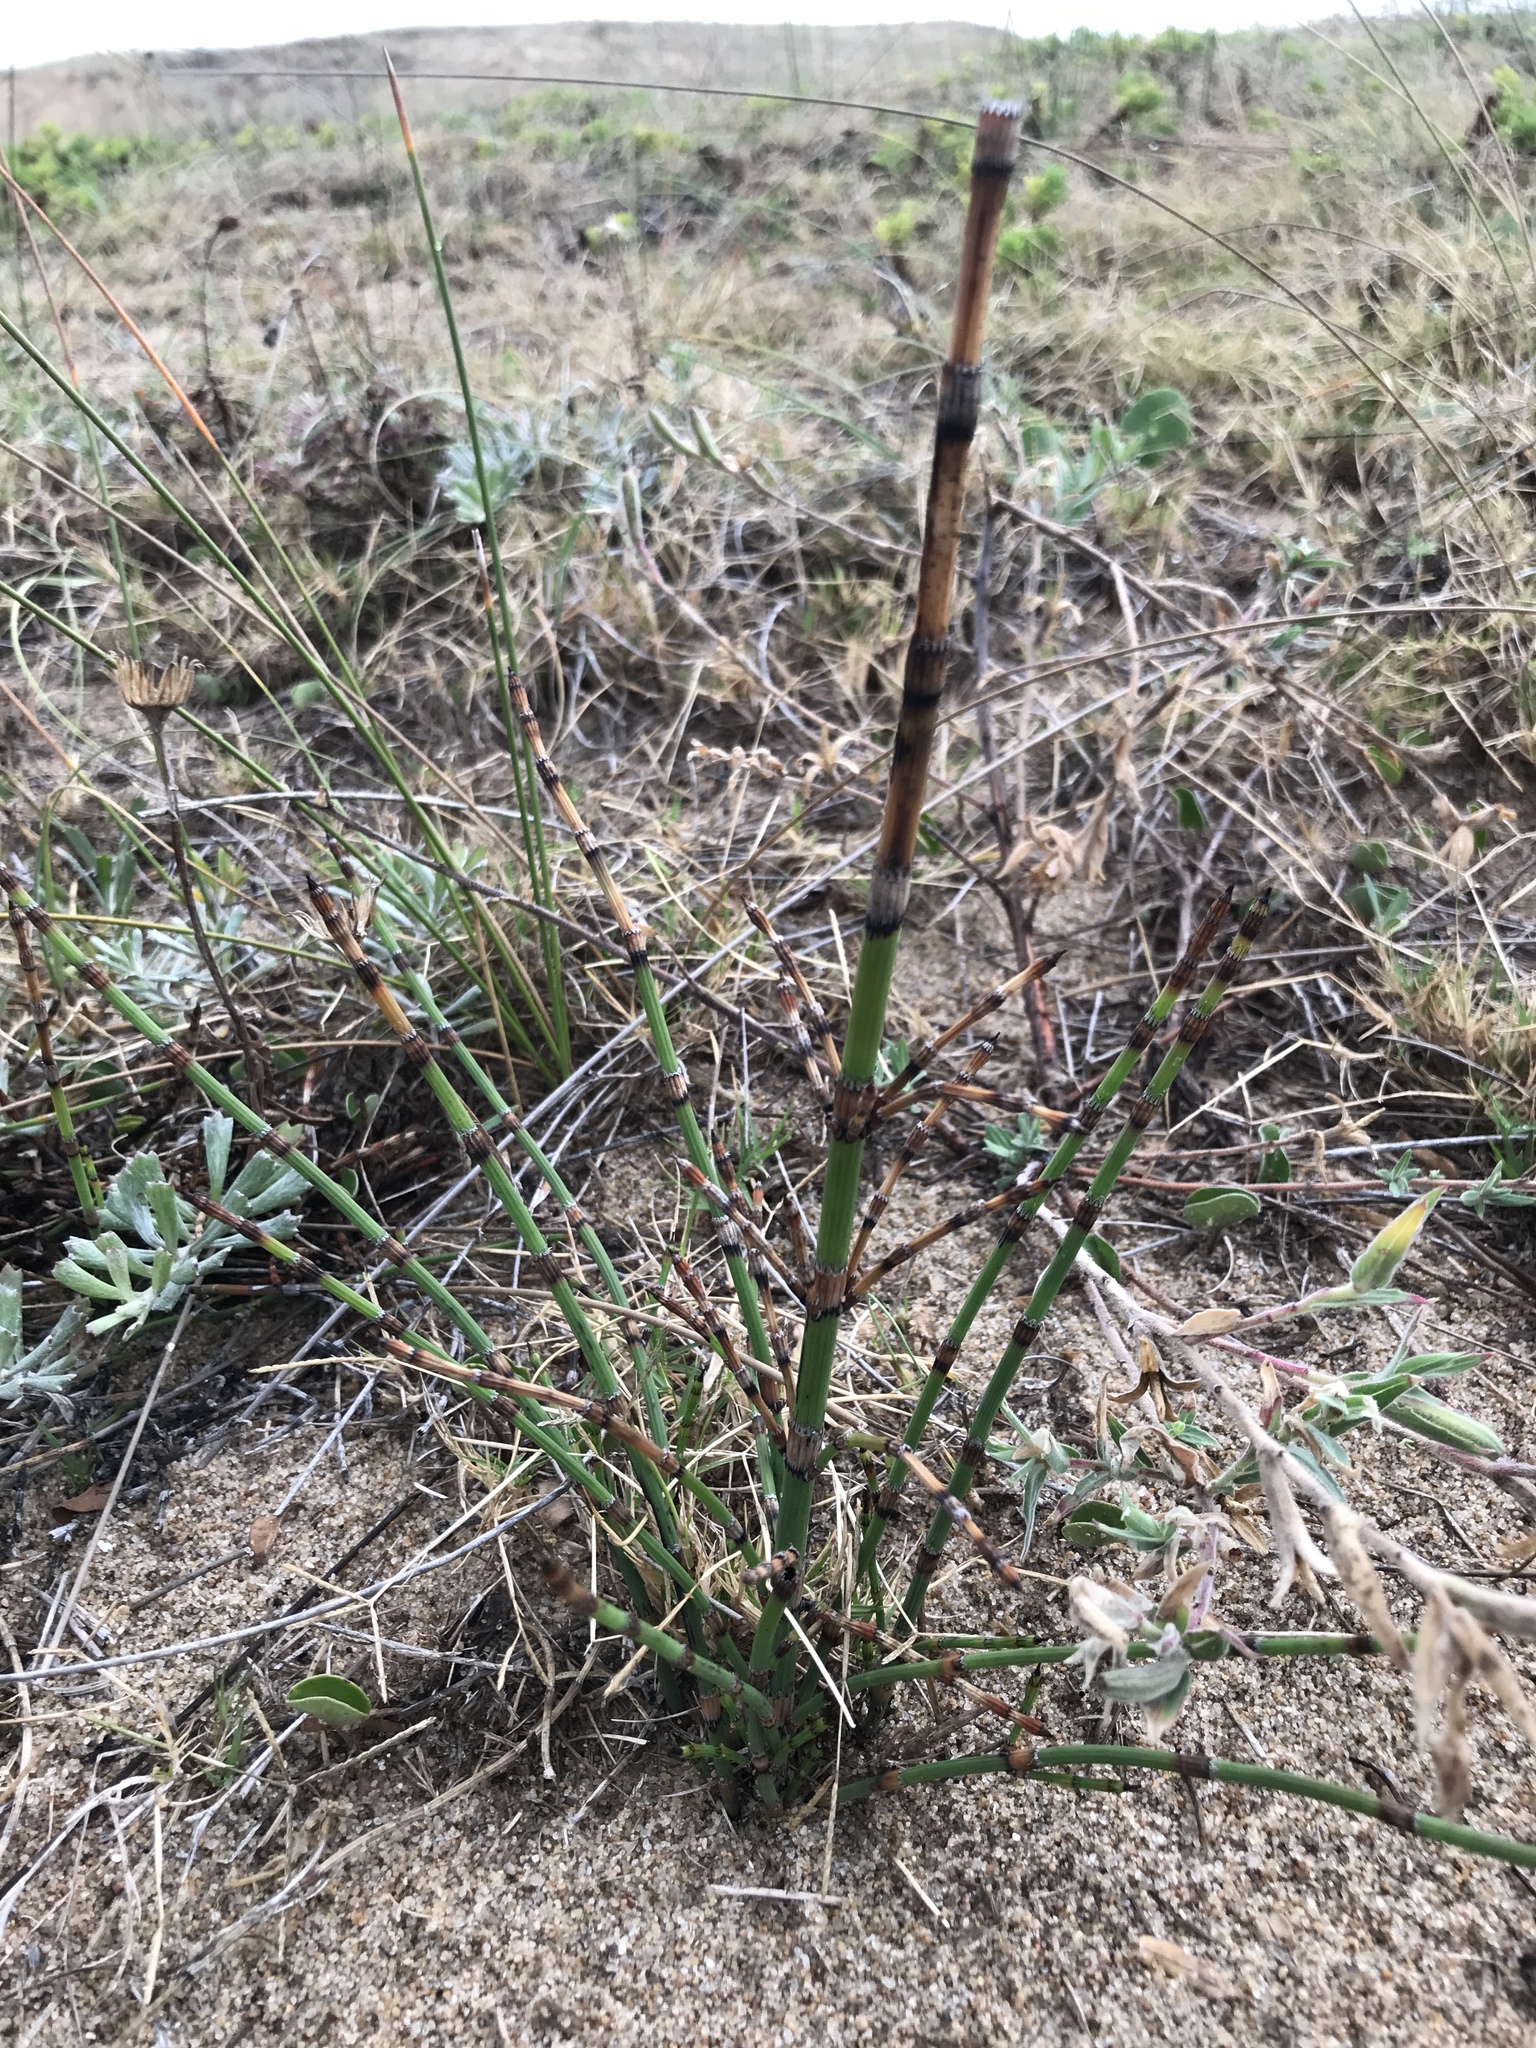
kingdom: Plantae
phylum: Tracheophyta
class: Polypodiopsida
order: Equisetales
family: Equisetaceae
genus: Equisetum
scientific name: Equisetum giganteum
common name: Giant horsetail
